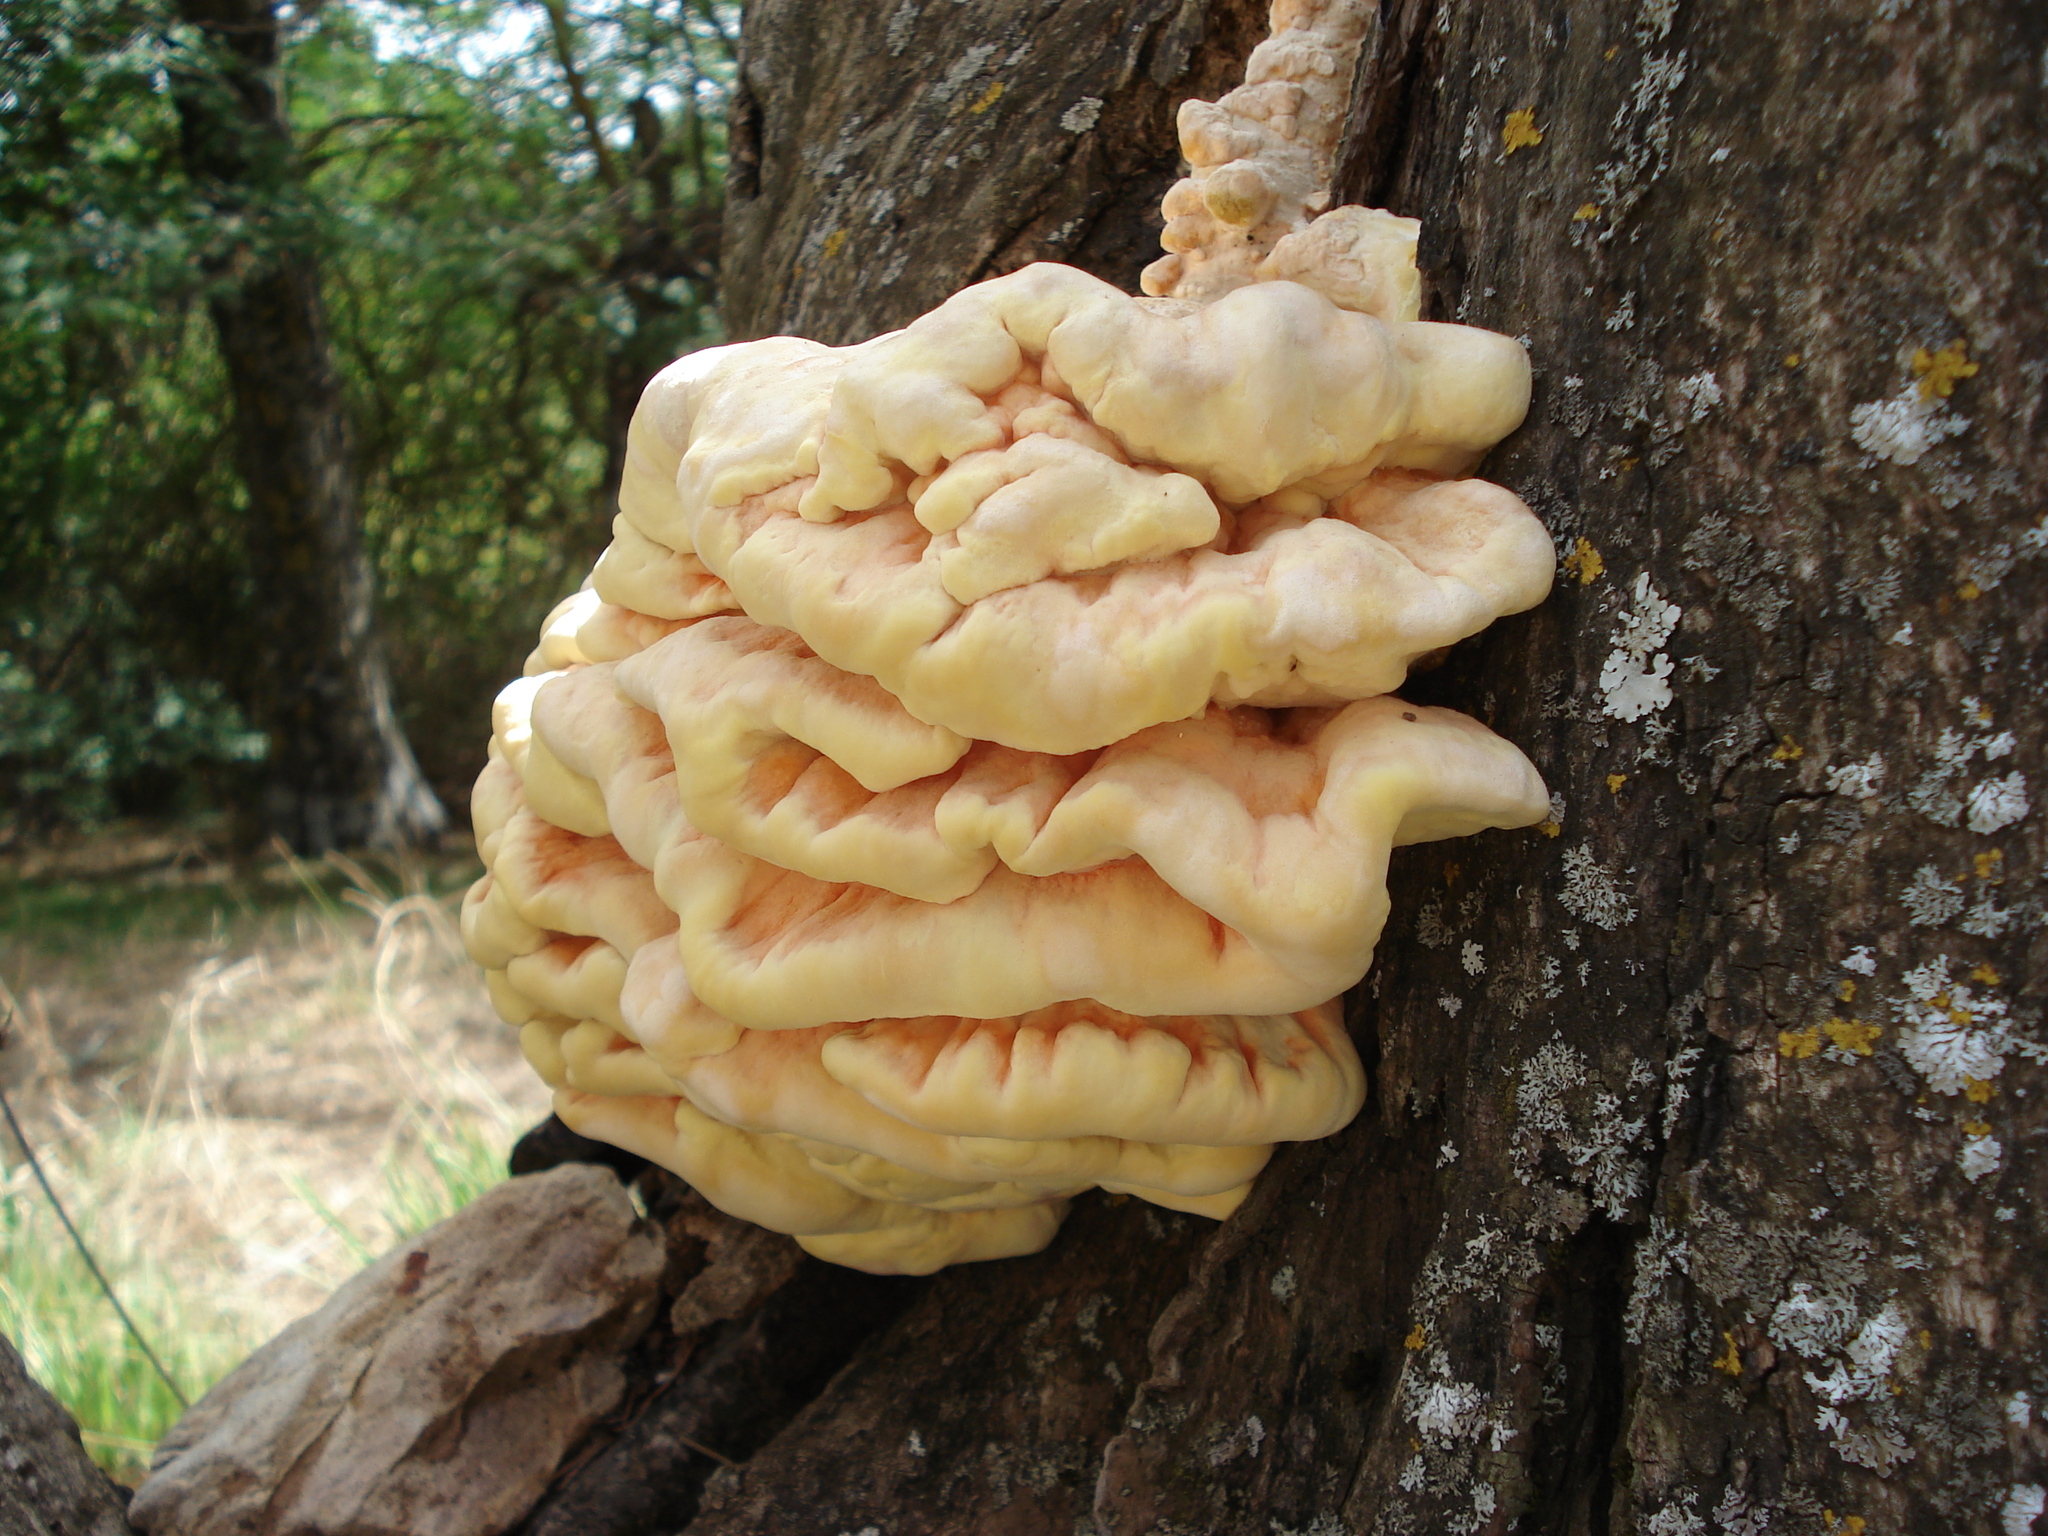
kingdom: Fungi
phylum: Basidiomycota
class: Agaricomycetes
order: Polyporales
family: Laetiporaceae
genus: Laetiporus
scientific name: Laetiporus sulphureus
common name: Chicken of the woods
